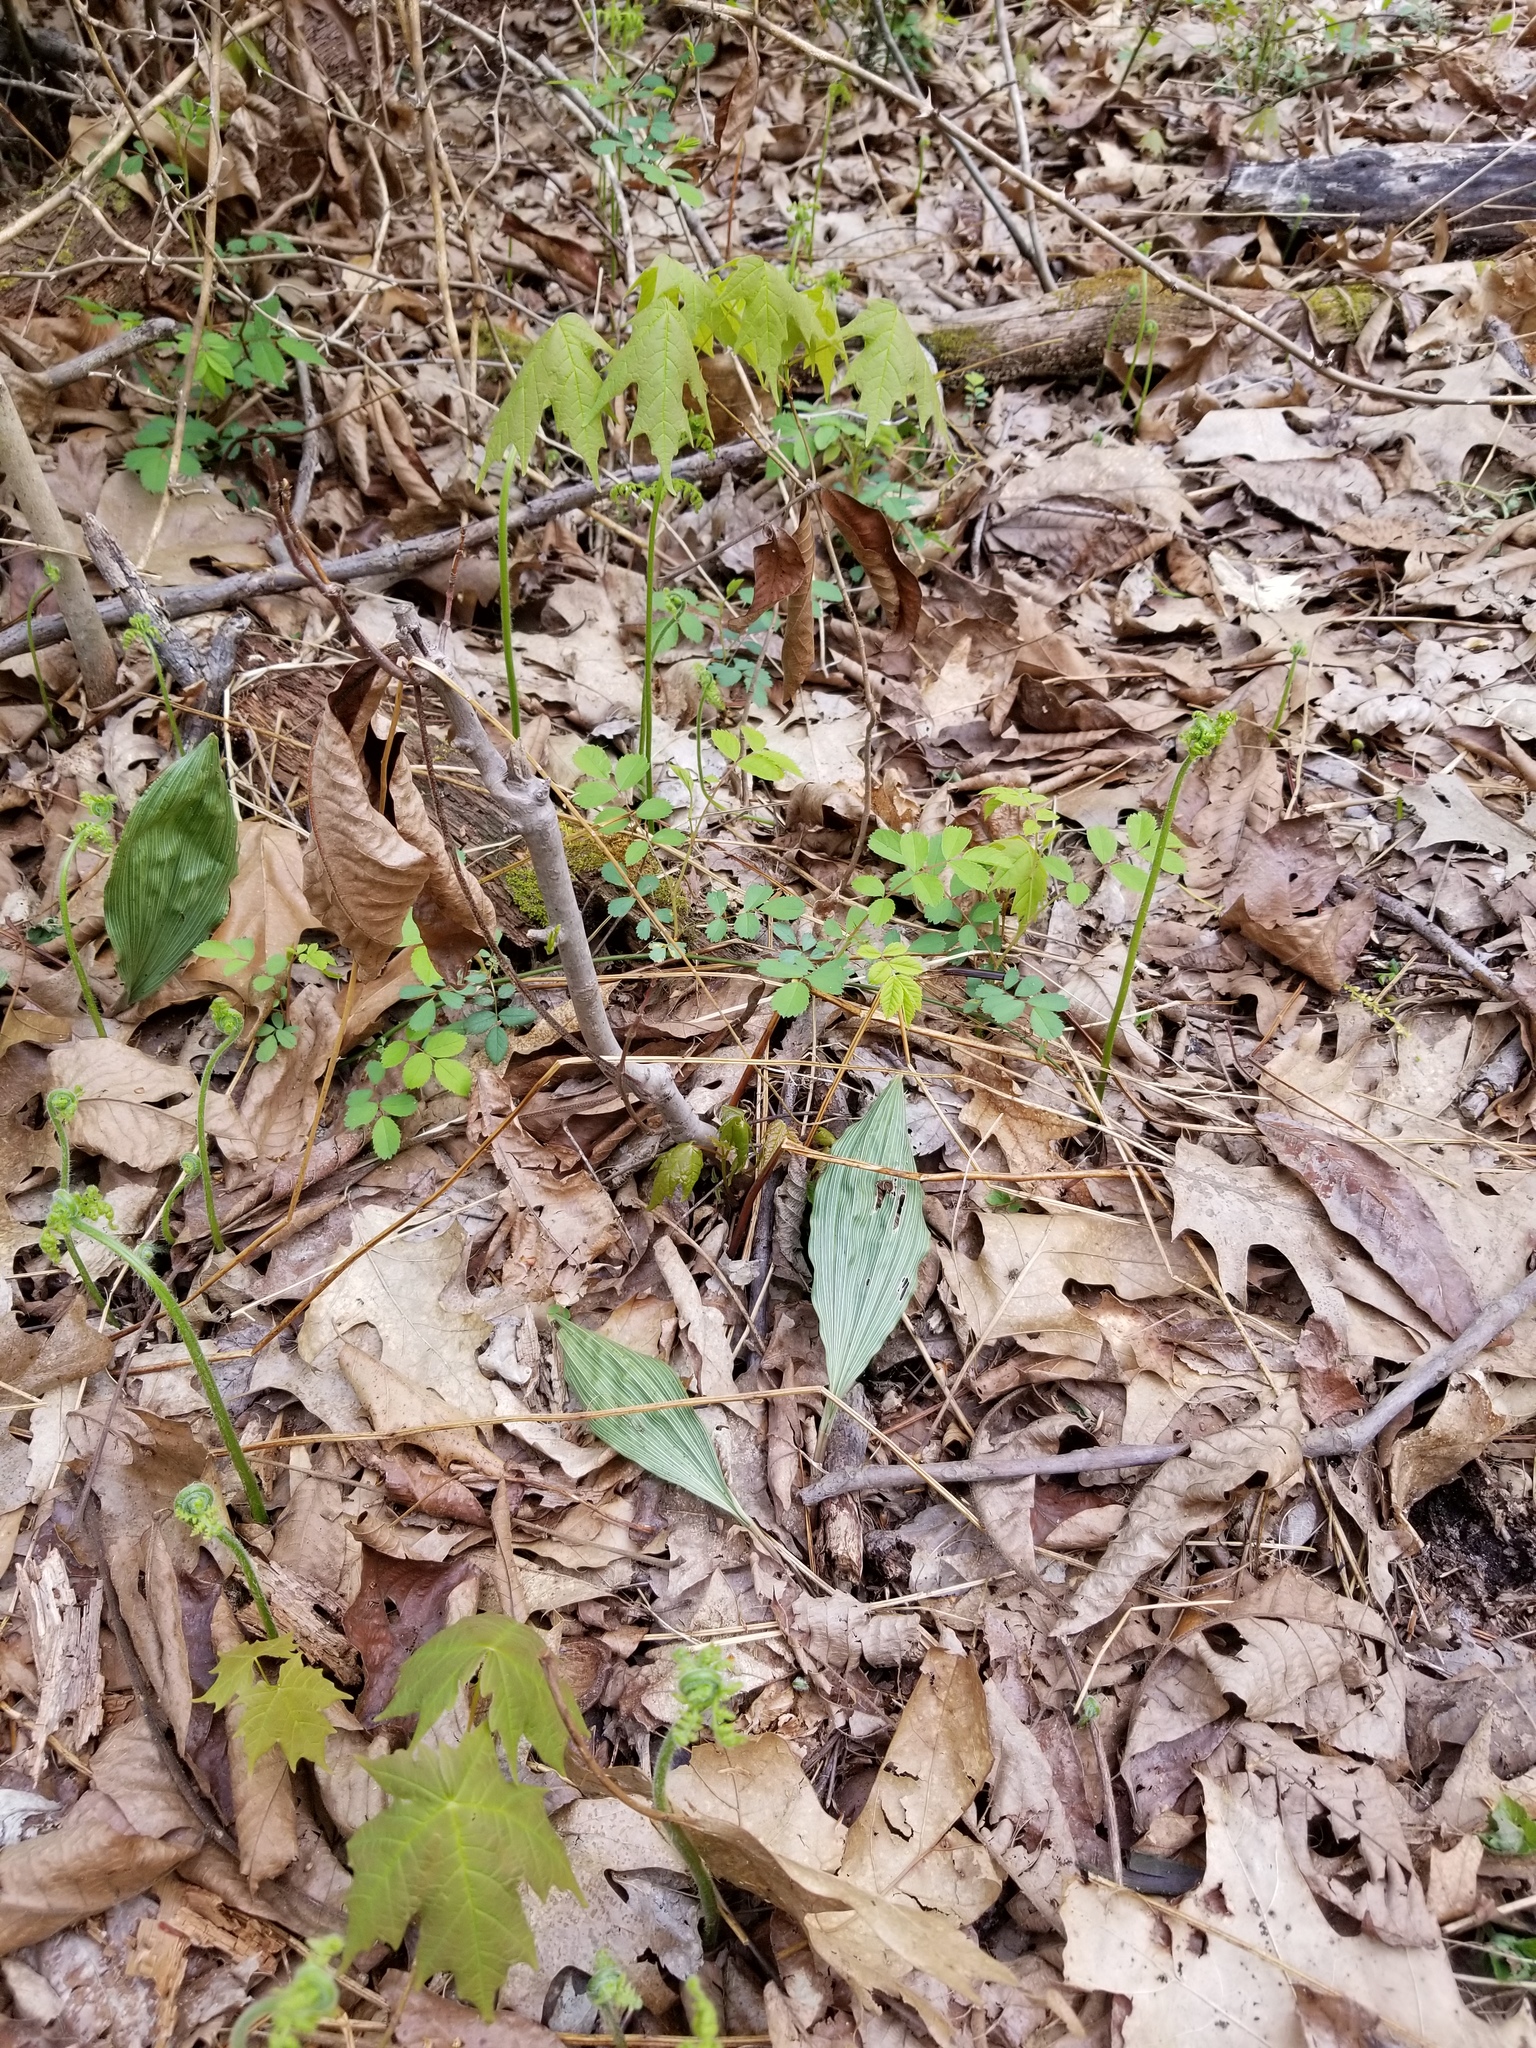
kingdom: Plantae
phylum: Tracheophyta
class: Liliopsida
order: Asparagales
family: Orchidaceae
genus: Aplectrum
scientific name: Aplectrum hyemale
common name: Adam-and-eve
